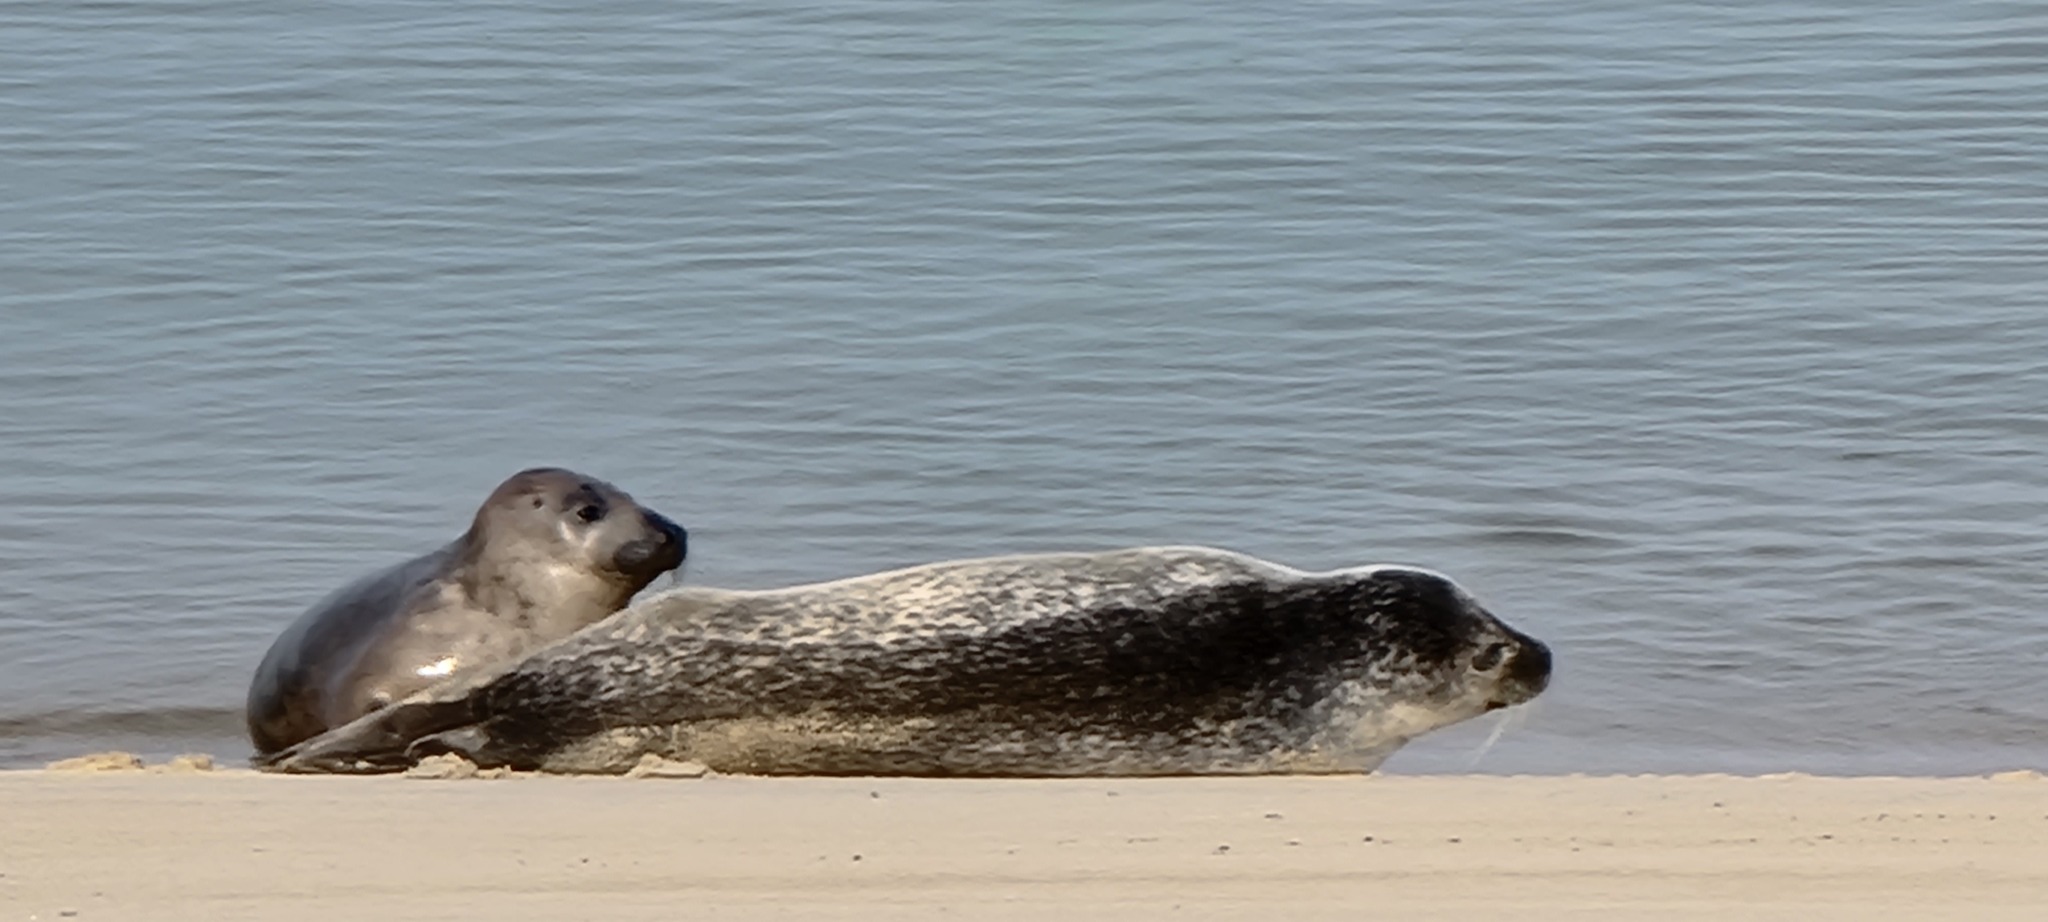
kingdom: Animalia
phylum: Chordata
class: Mammalia
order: Carnivora
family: Phocidae
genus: Phoca
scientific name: Phoca vitulina
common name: Harbor seal
